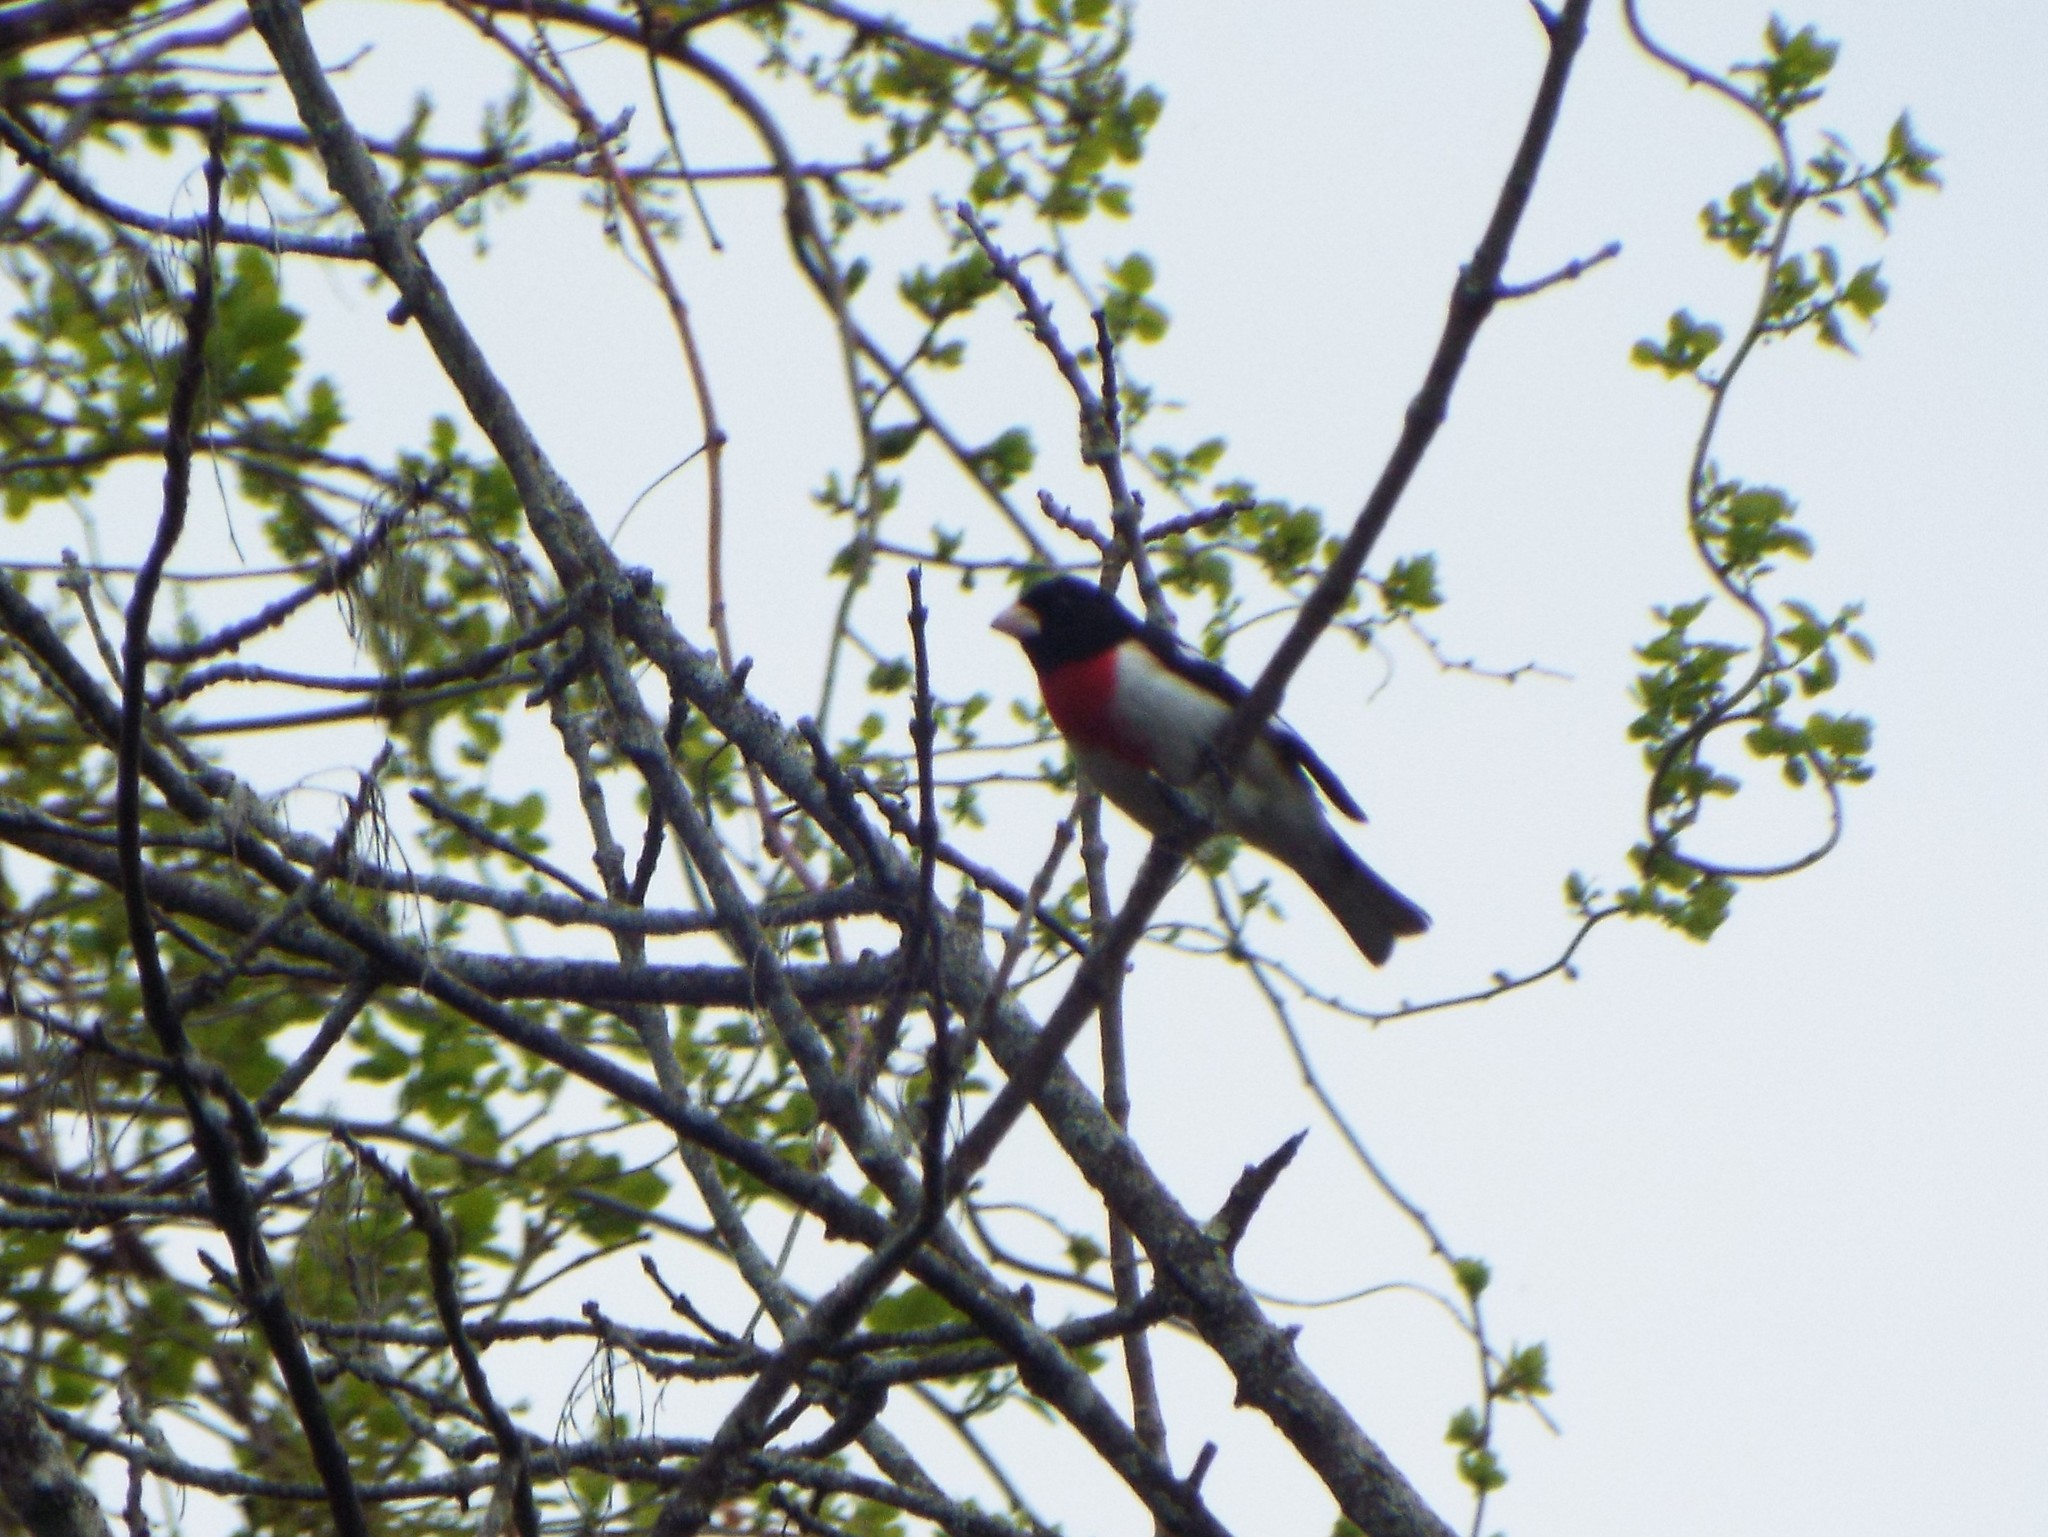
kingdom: Animalia
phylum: Chordata
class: Aves
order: Passeriformes
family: Cardinalidae
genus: Pheucticus
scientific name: Pheucticus ludovicianus
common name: Rose-breasted grosbeak
